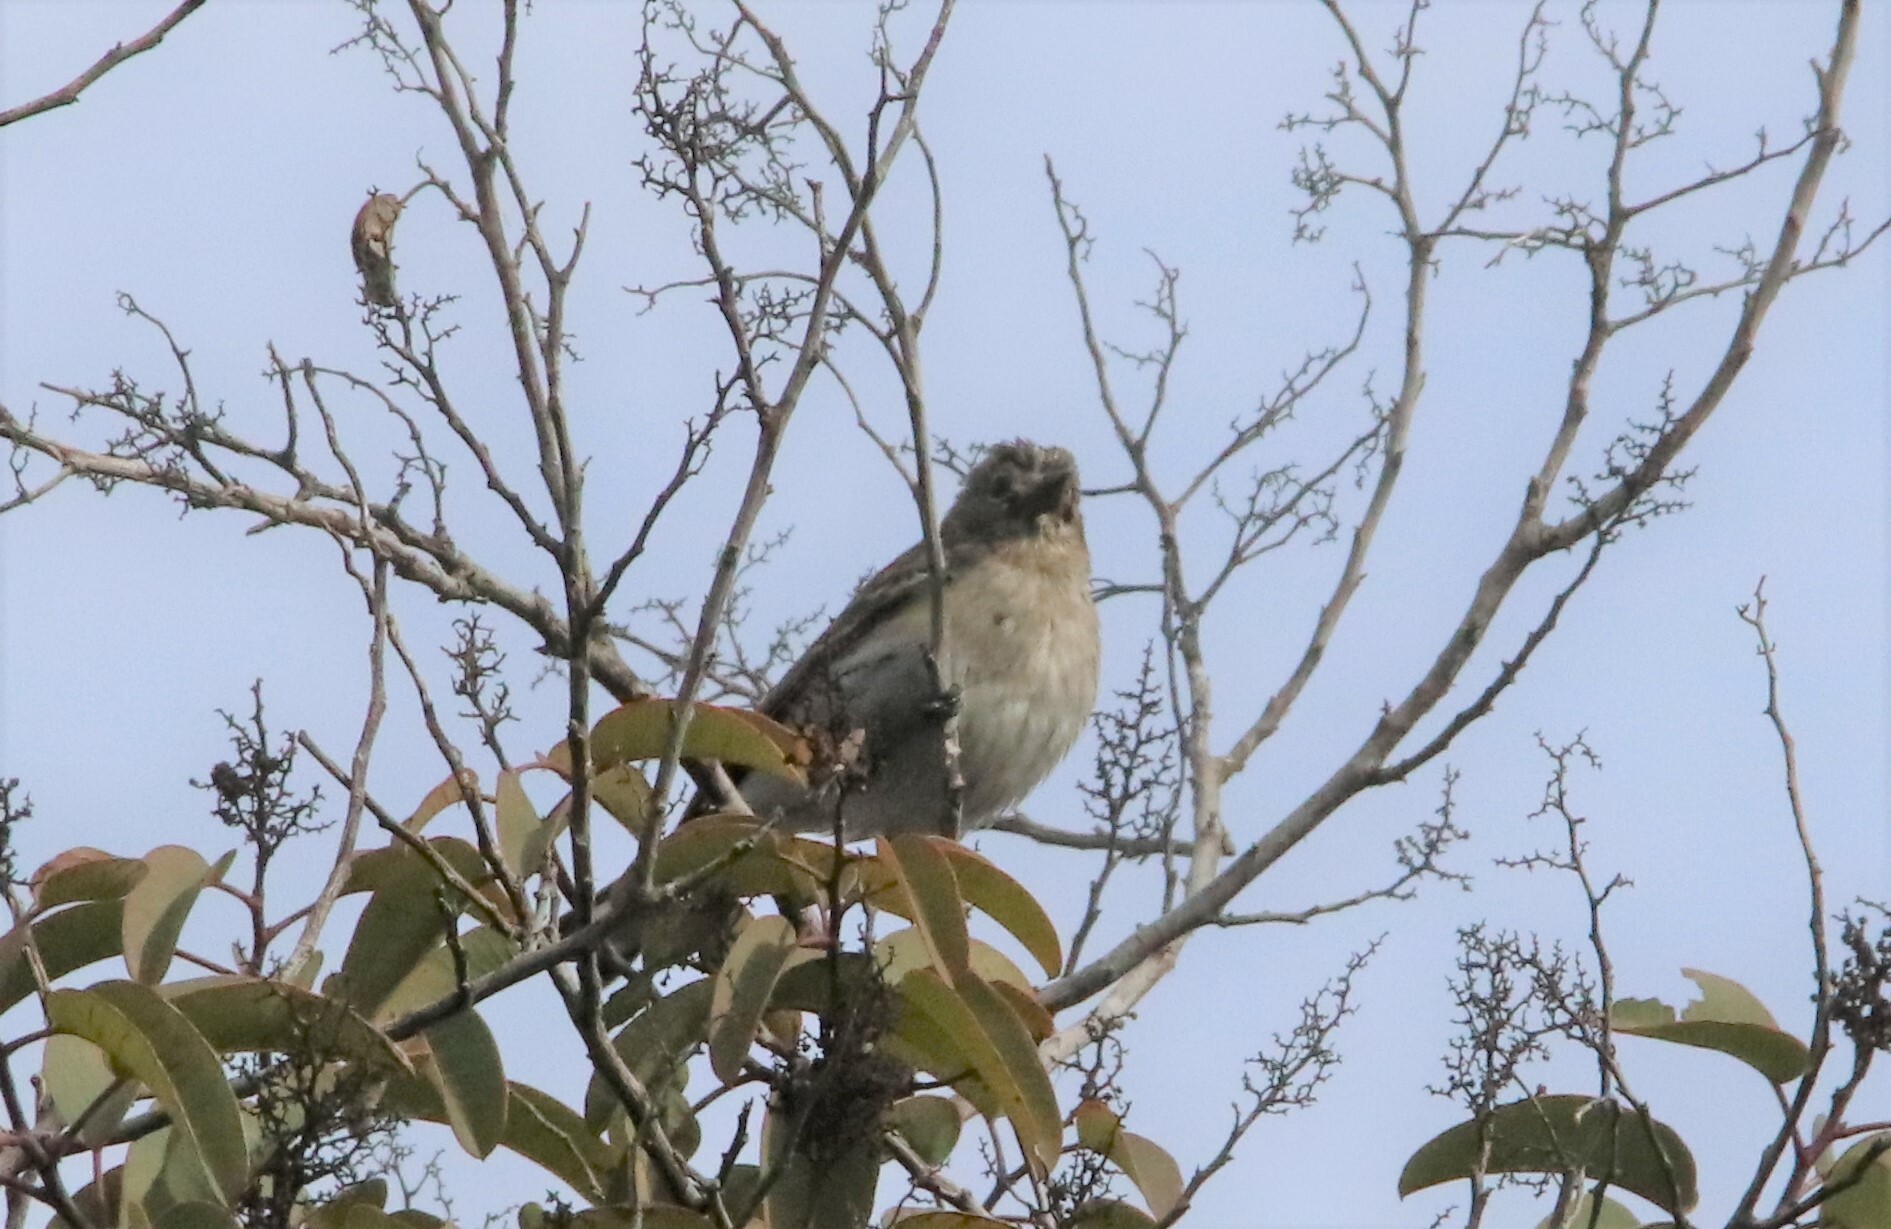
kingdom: Animalia
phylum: Chordata
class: Aves
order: Passeriformes
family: Parulidae
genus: Setophaga
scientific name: Setophaga coronata
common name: Myrtle warbler
